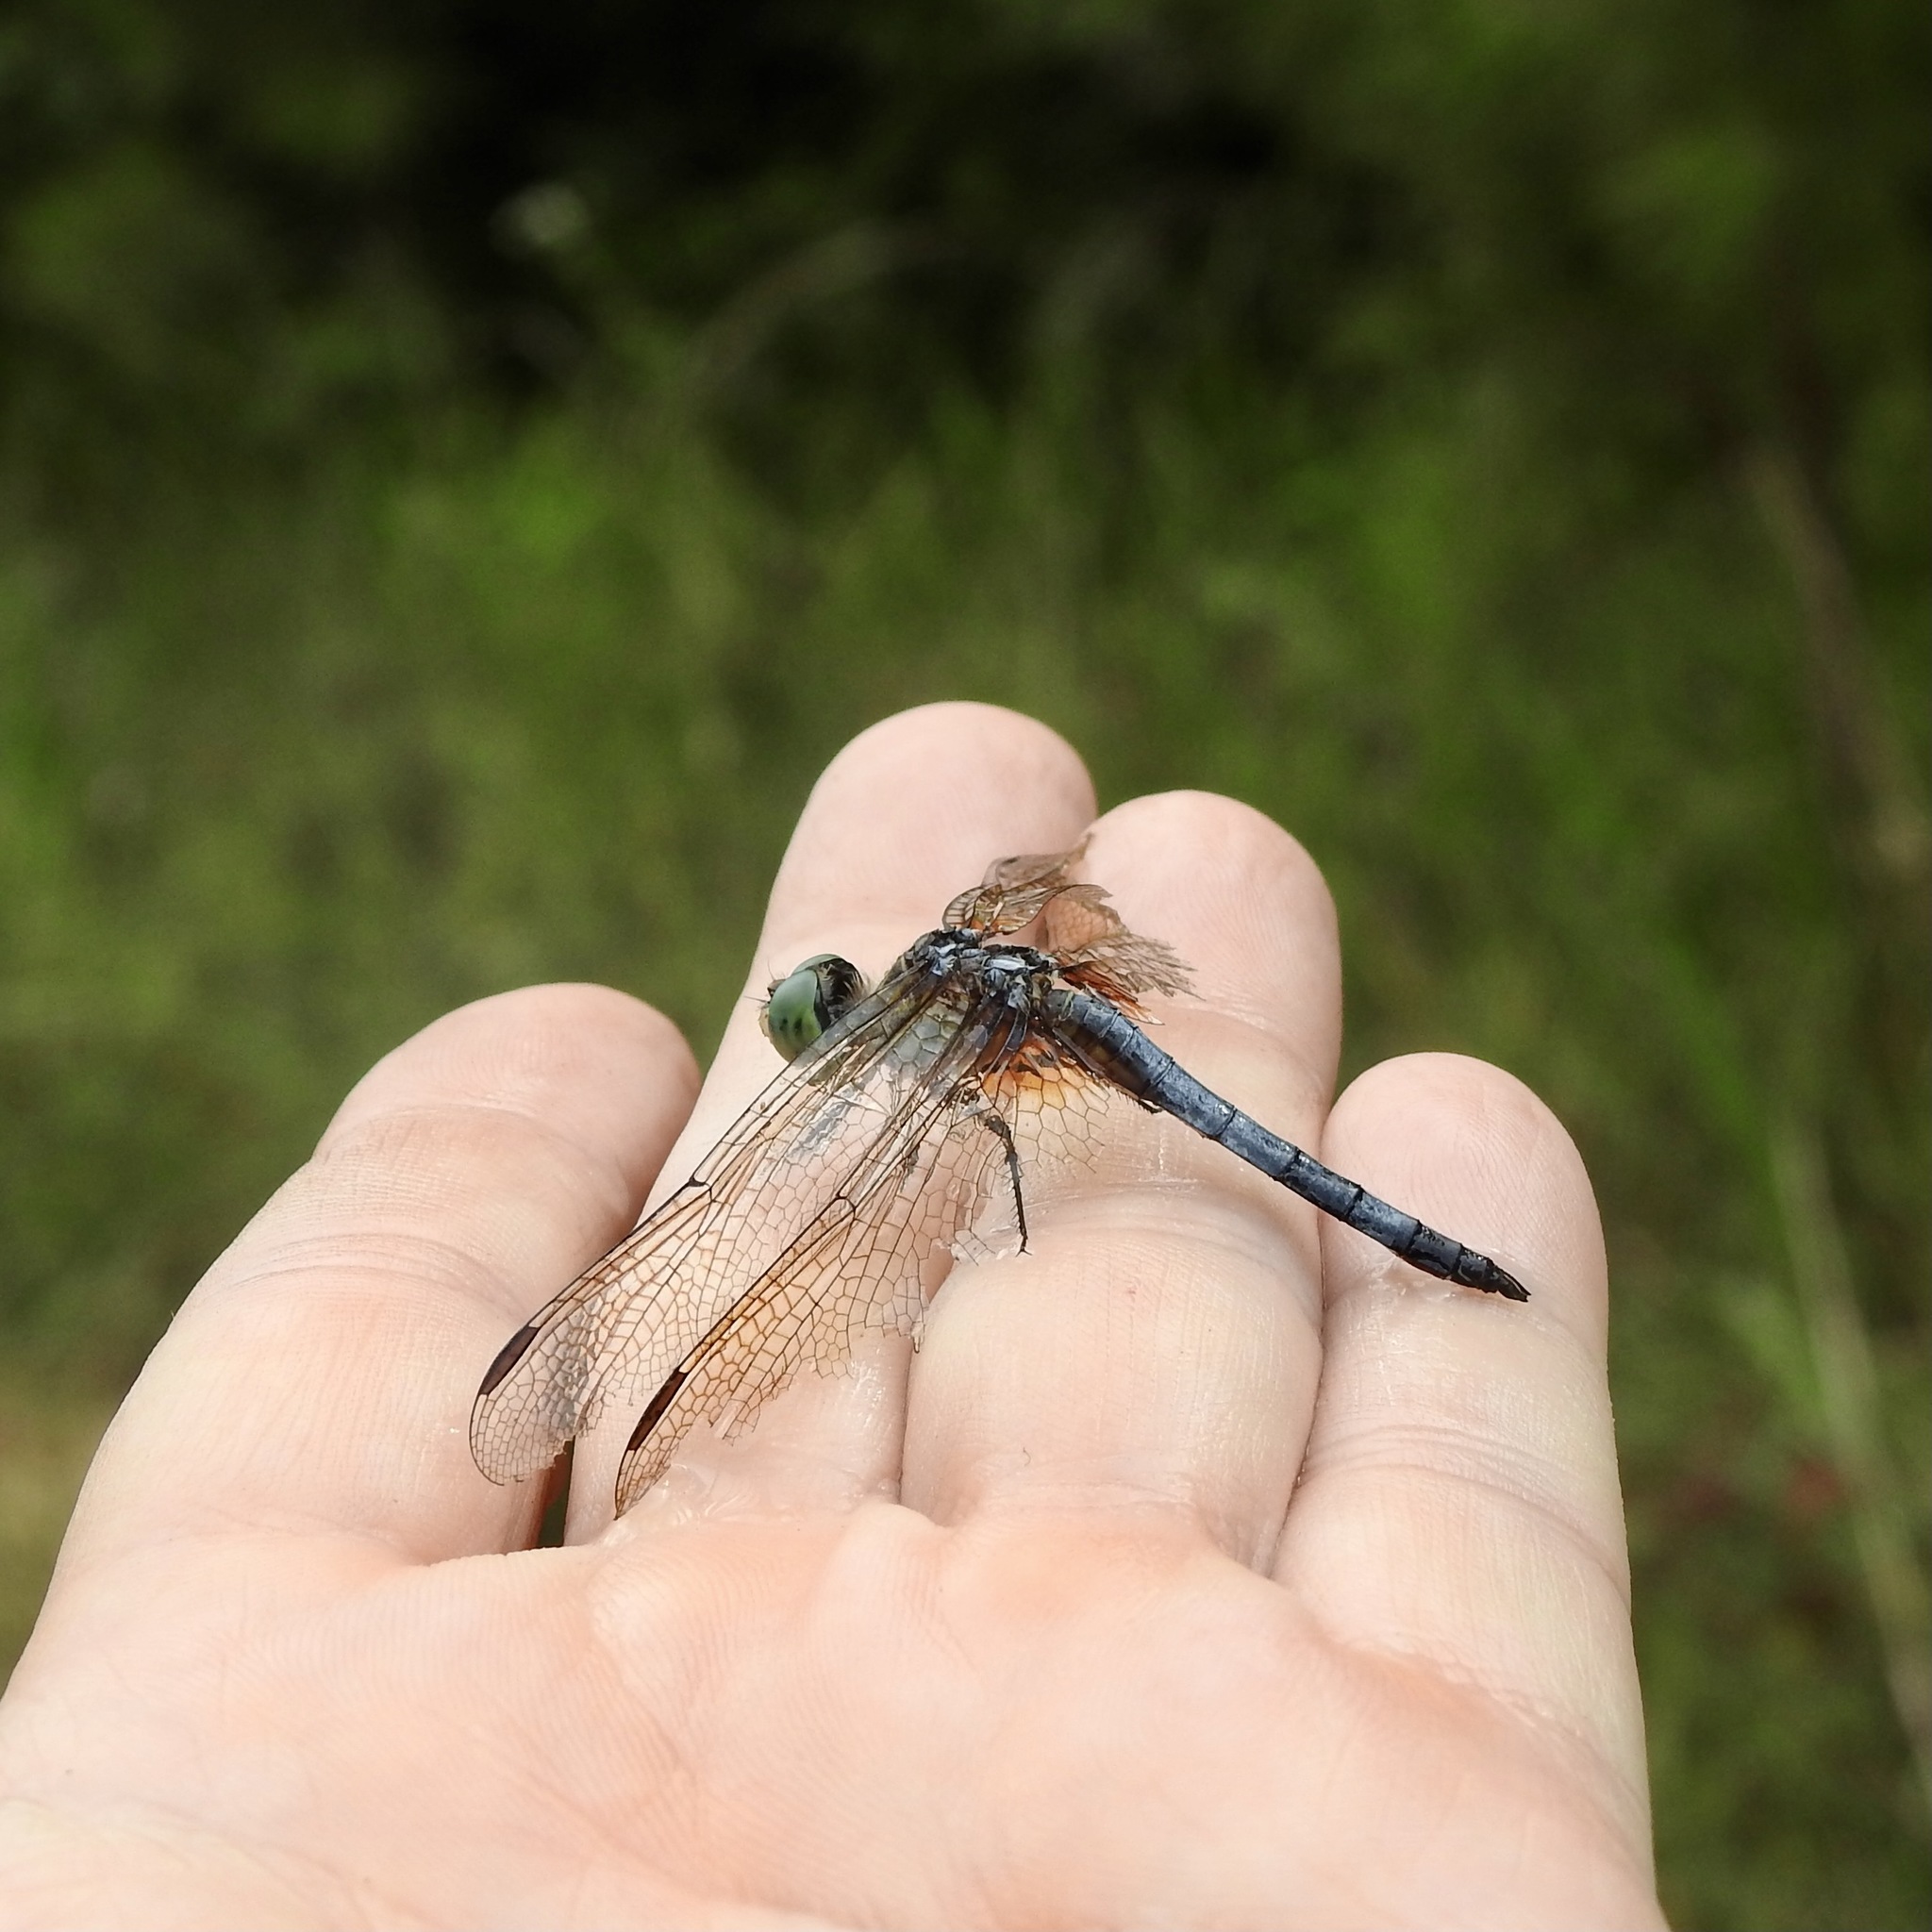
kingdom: Animalia
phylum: Arthropoda
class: Insecta
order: Odonata
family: Libellulidae
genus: Pachydiplax
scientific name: Pachydiplax longipennis
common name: Blue dasher
